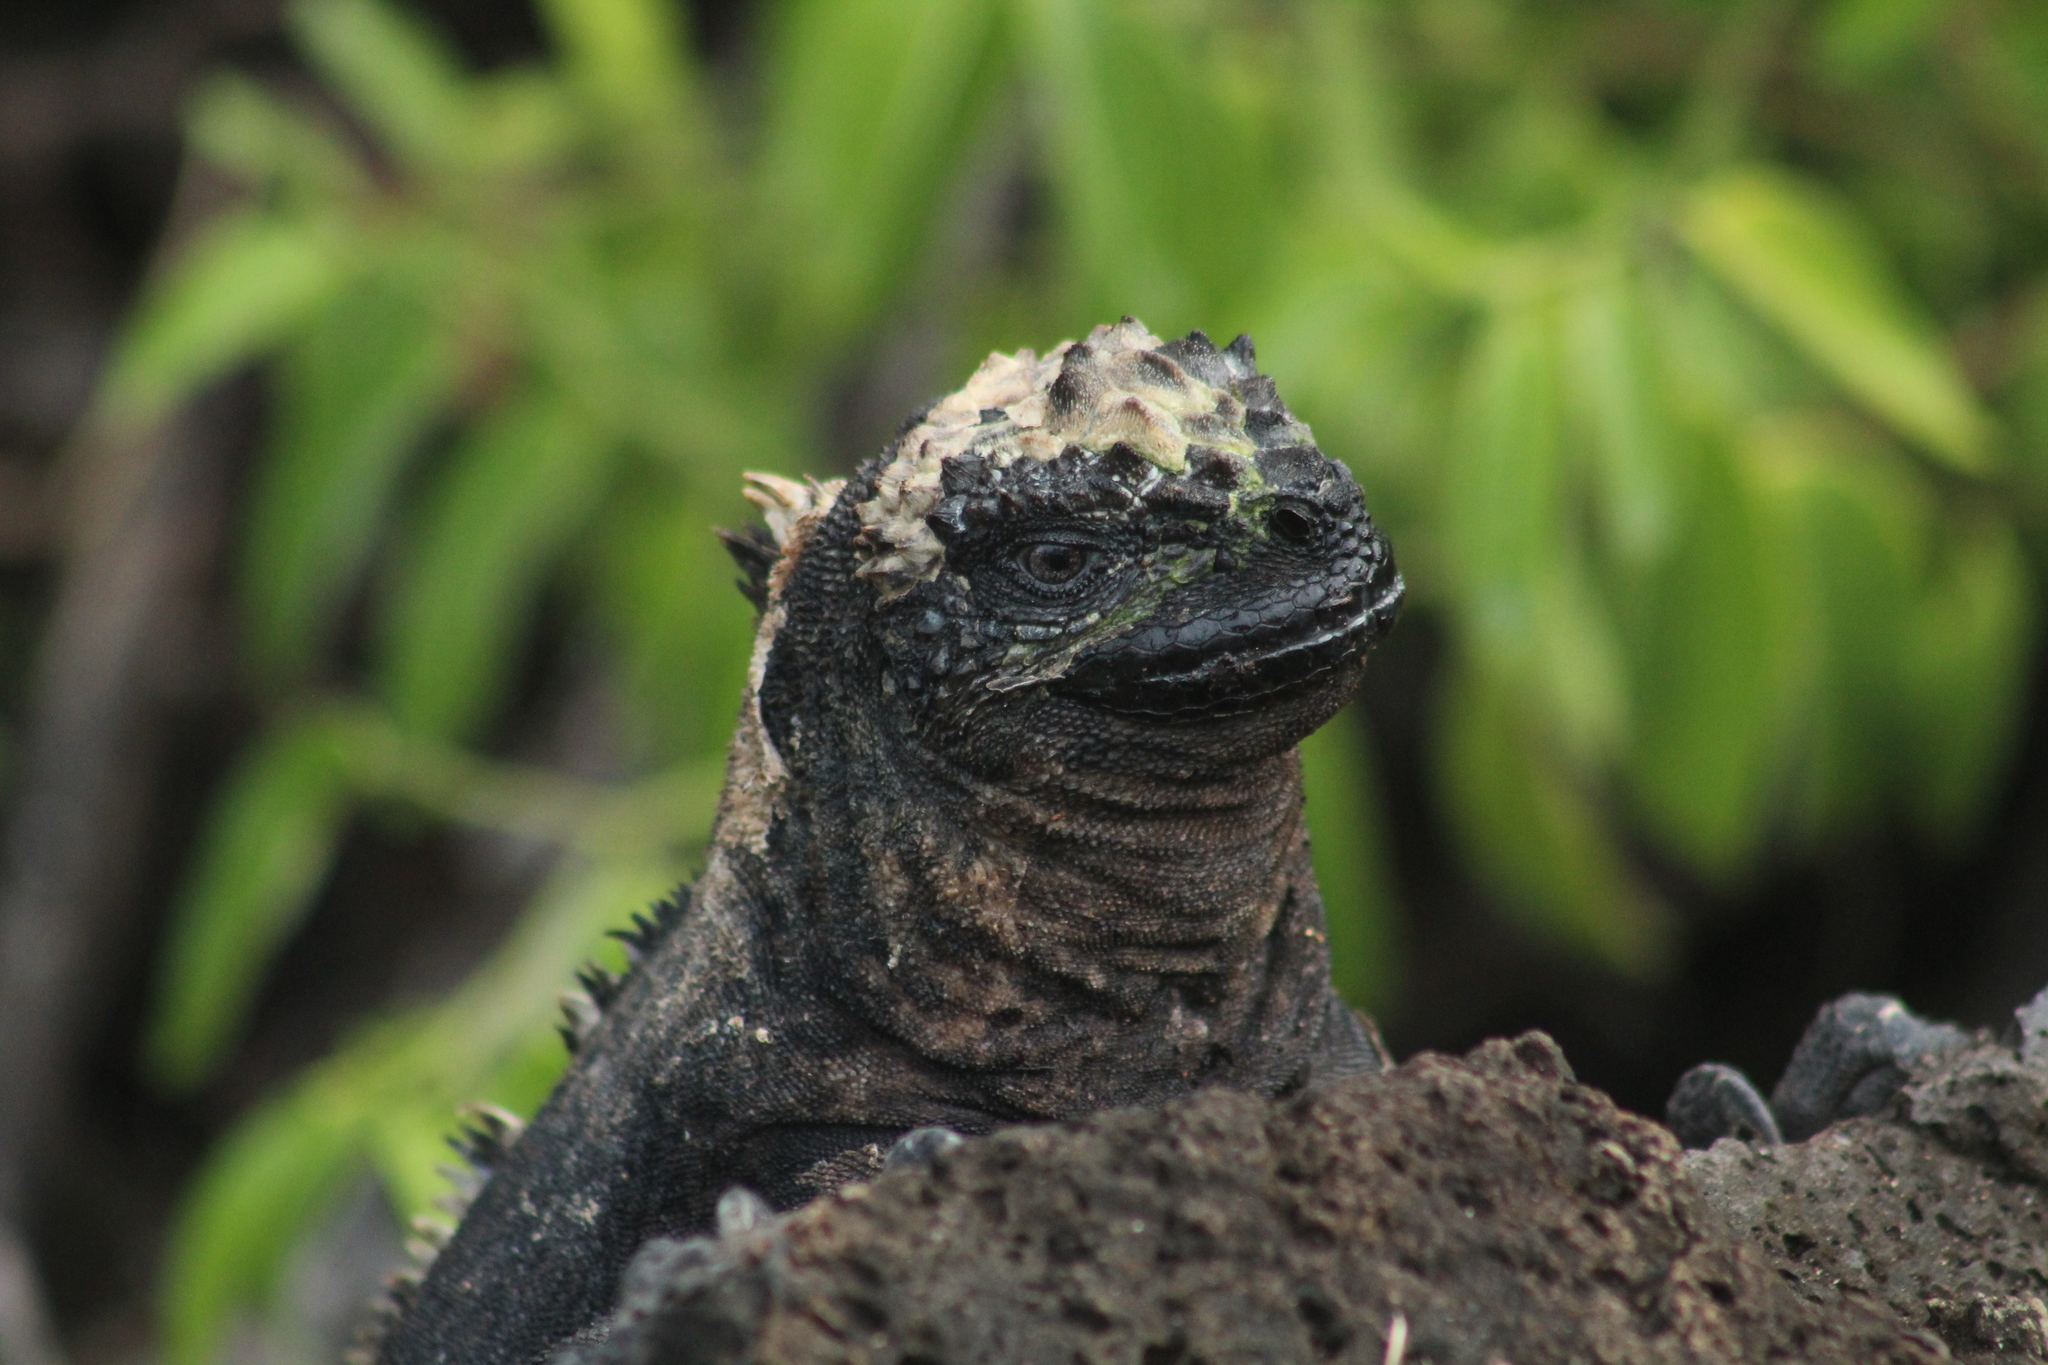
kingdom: Animalia
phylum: Chordata
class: Squamata
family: Iguanidae
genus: Amblyrhynchus
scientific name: Amblyrhynchus cristatus
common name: Marine iguana
